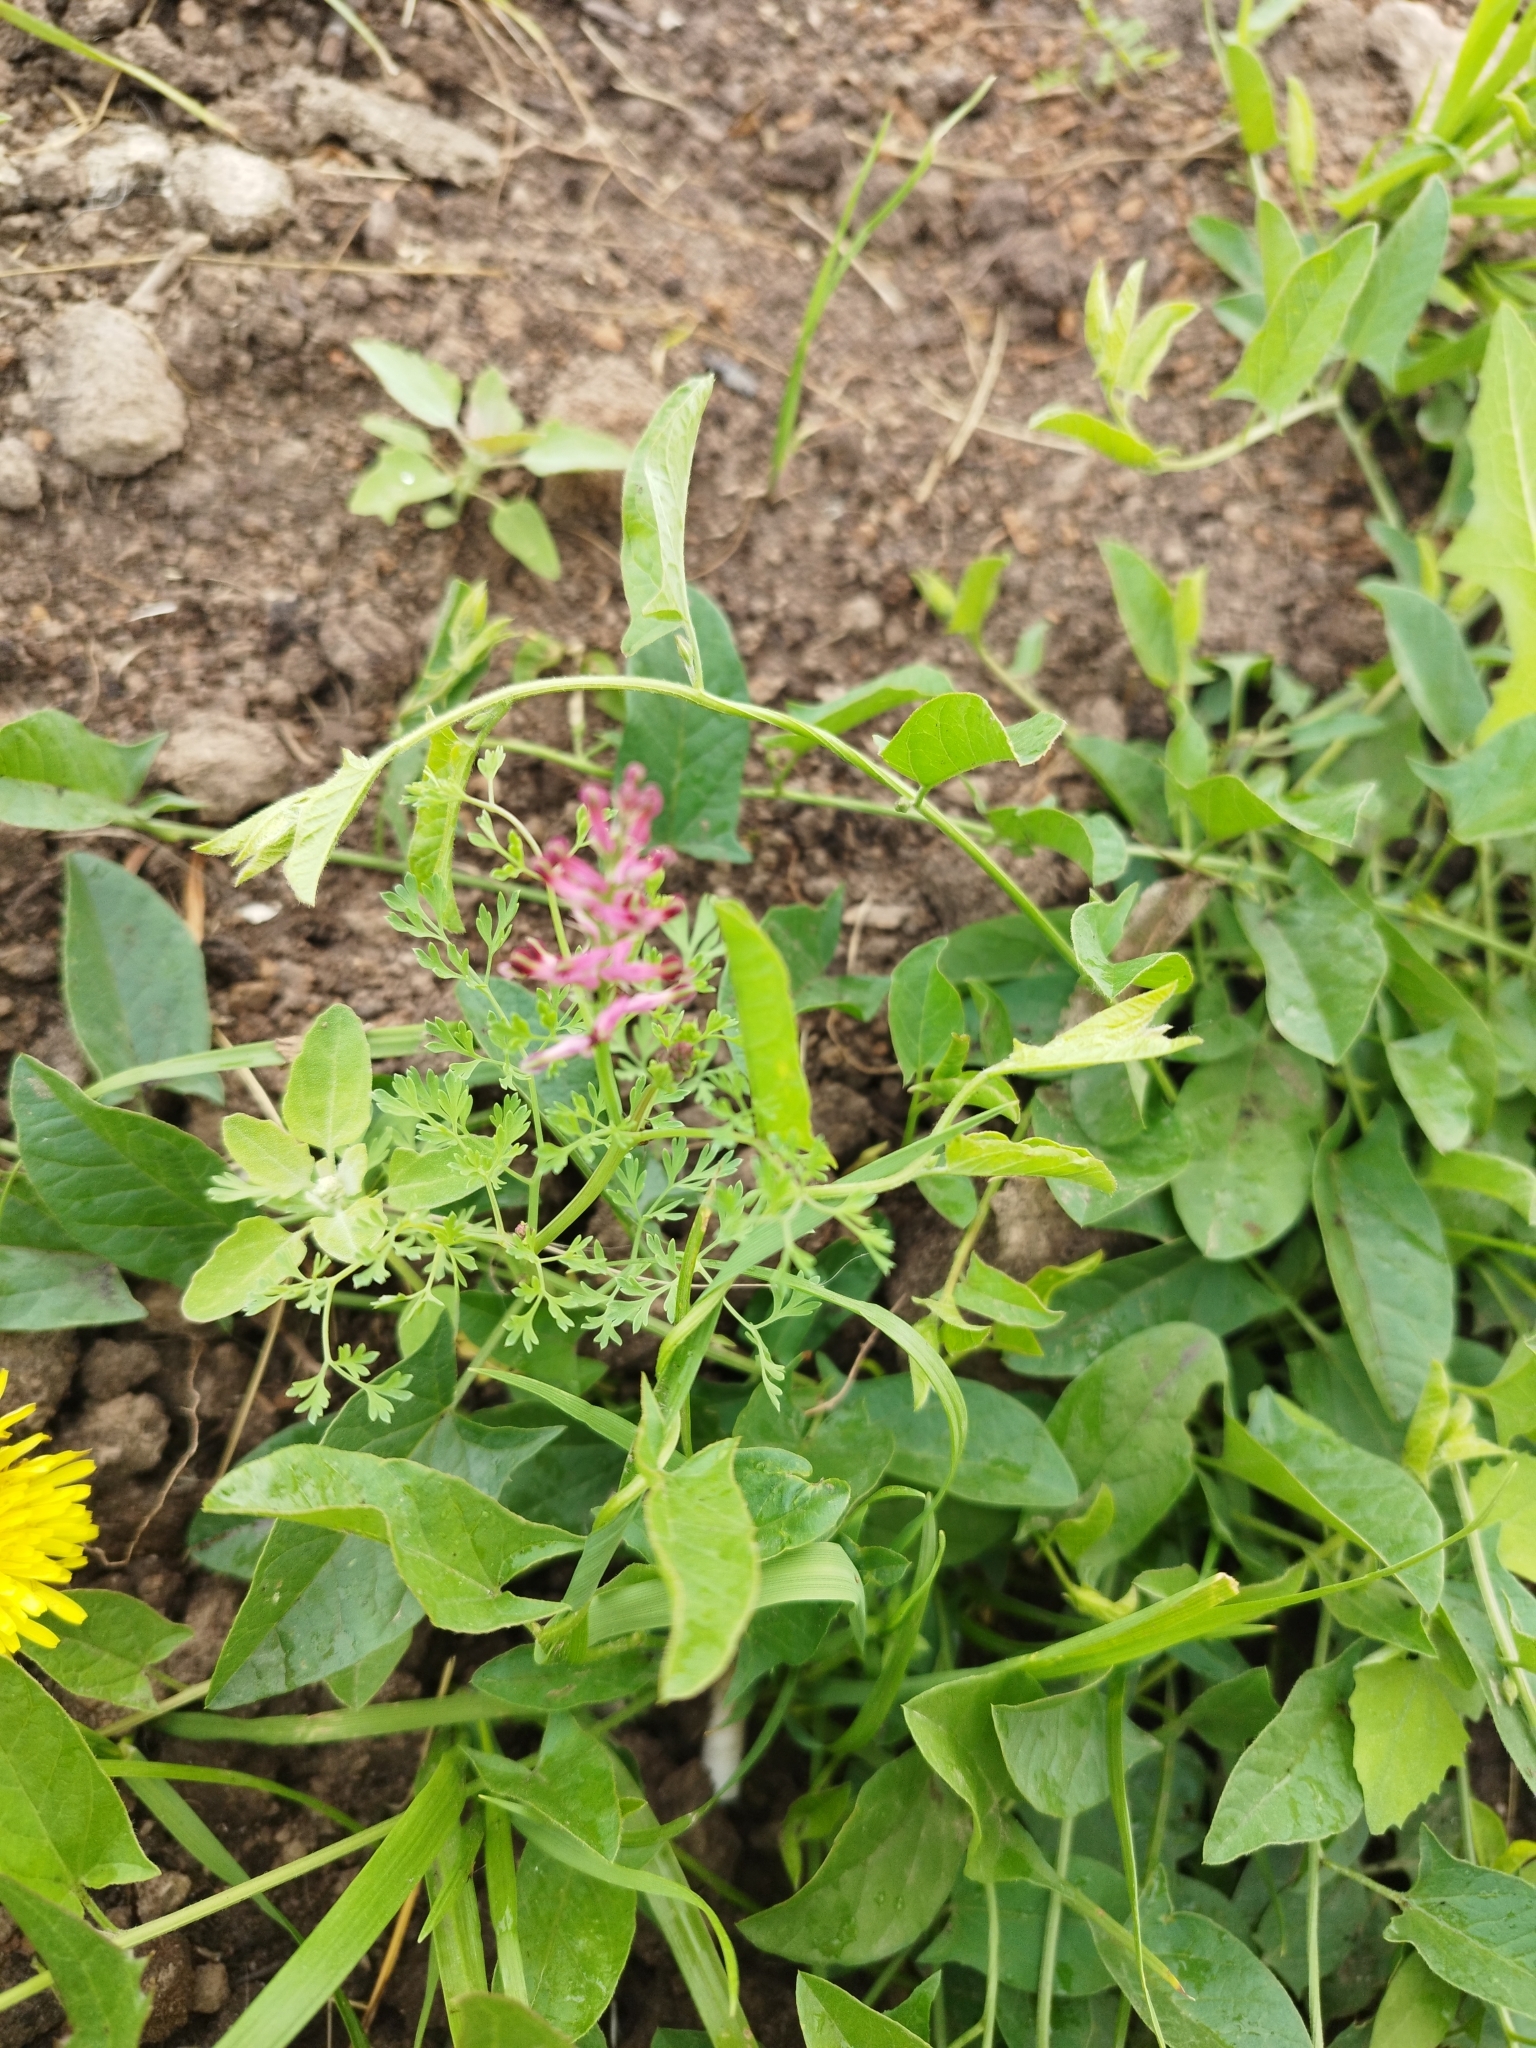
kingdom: Plantae
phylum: Tracheophyta
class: Magnoliopsida
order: Ranunculales
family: Papaveraceae
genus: Fumaria
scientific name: Fumaria officinalis
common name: Common fumitory
